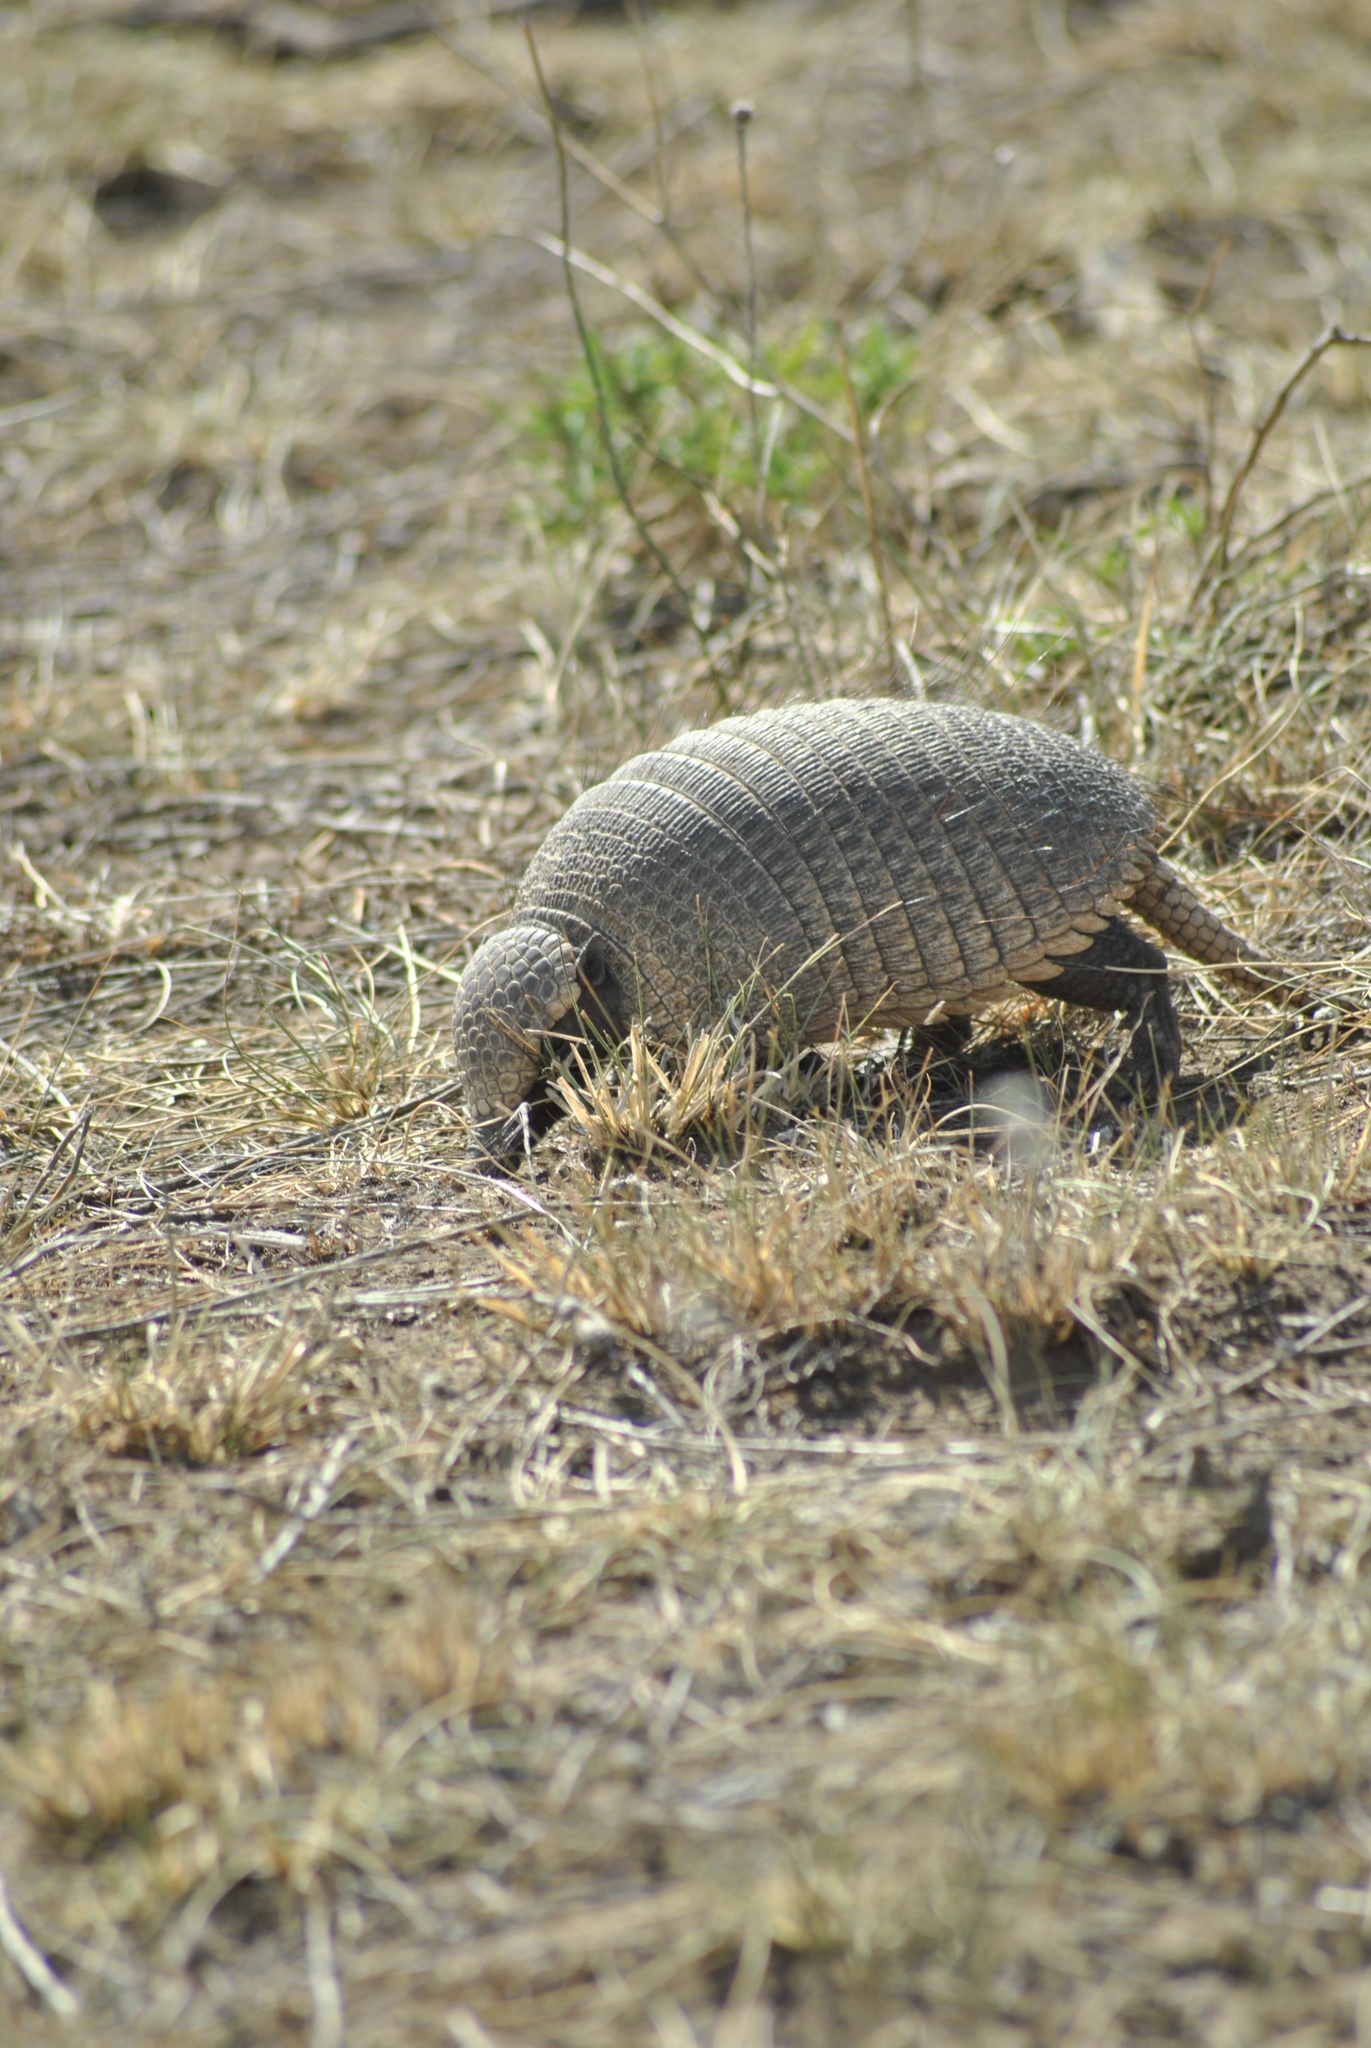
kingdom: Animalia
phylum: Chordata
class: Mammalia
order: Cingulata
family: Dasypodidae
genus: Zaedyus
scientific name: Zaedyus pichiy
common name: Pichi
